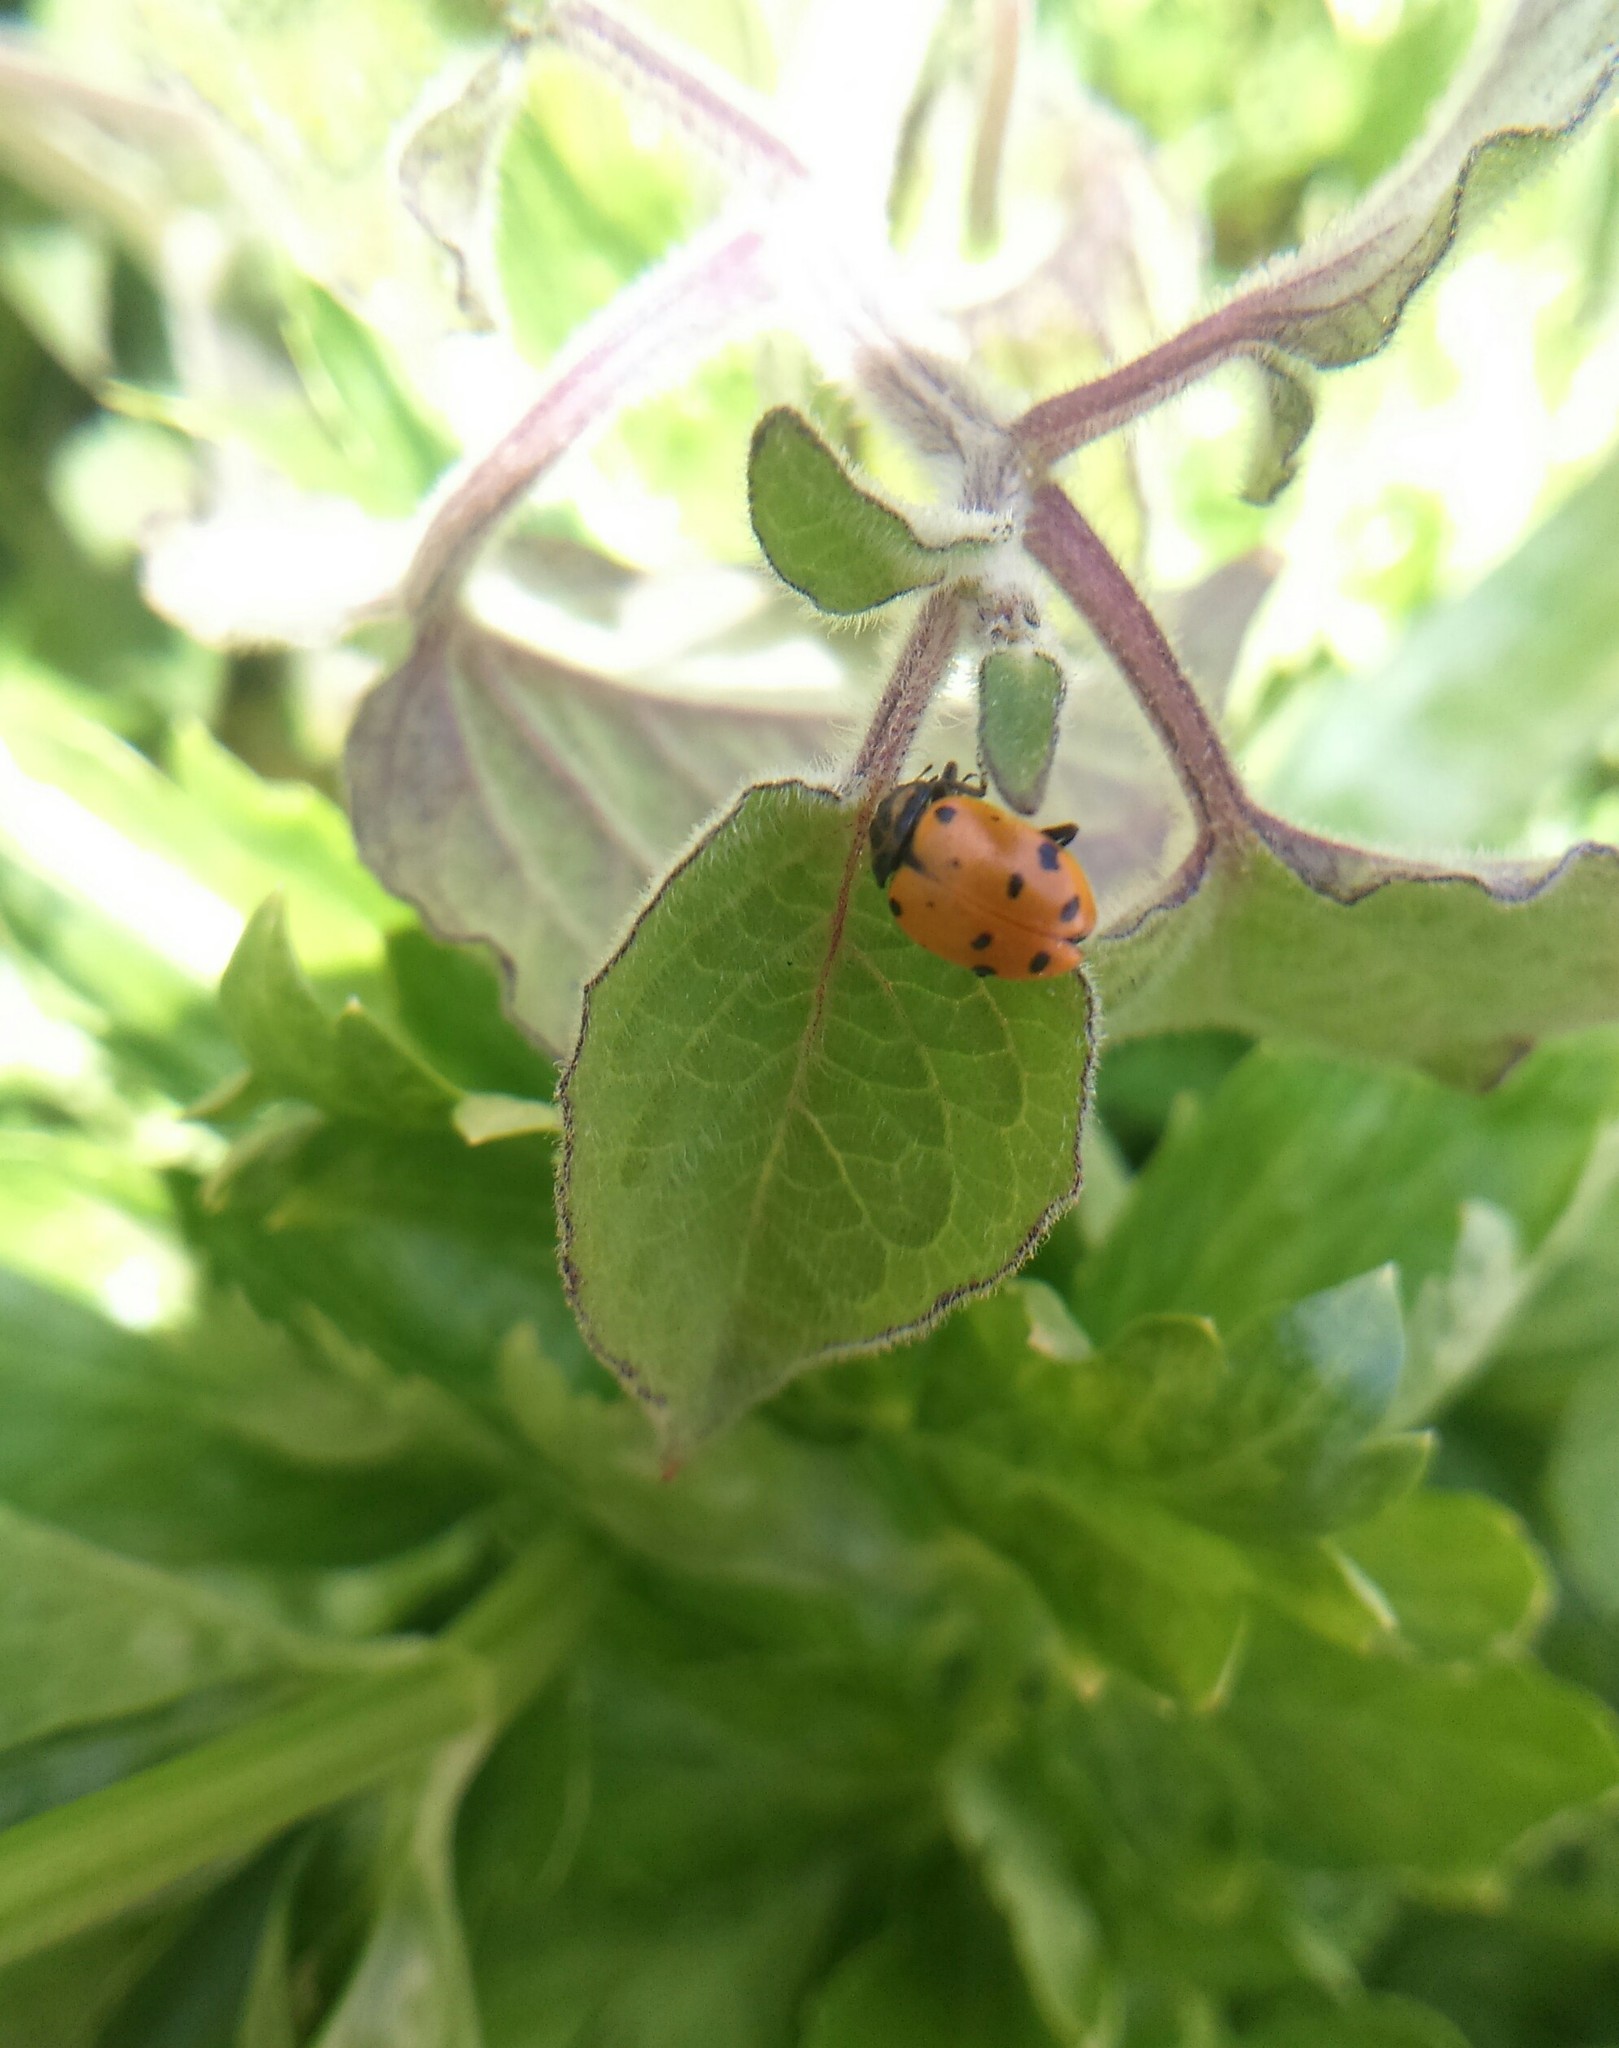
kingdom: Animalia
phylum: Arthropoda
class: Insecta
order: Coleoptera
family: Coccinellidae
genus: Hippodamia
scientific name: Hippodamia convergens
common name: Convergent lady beetle
